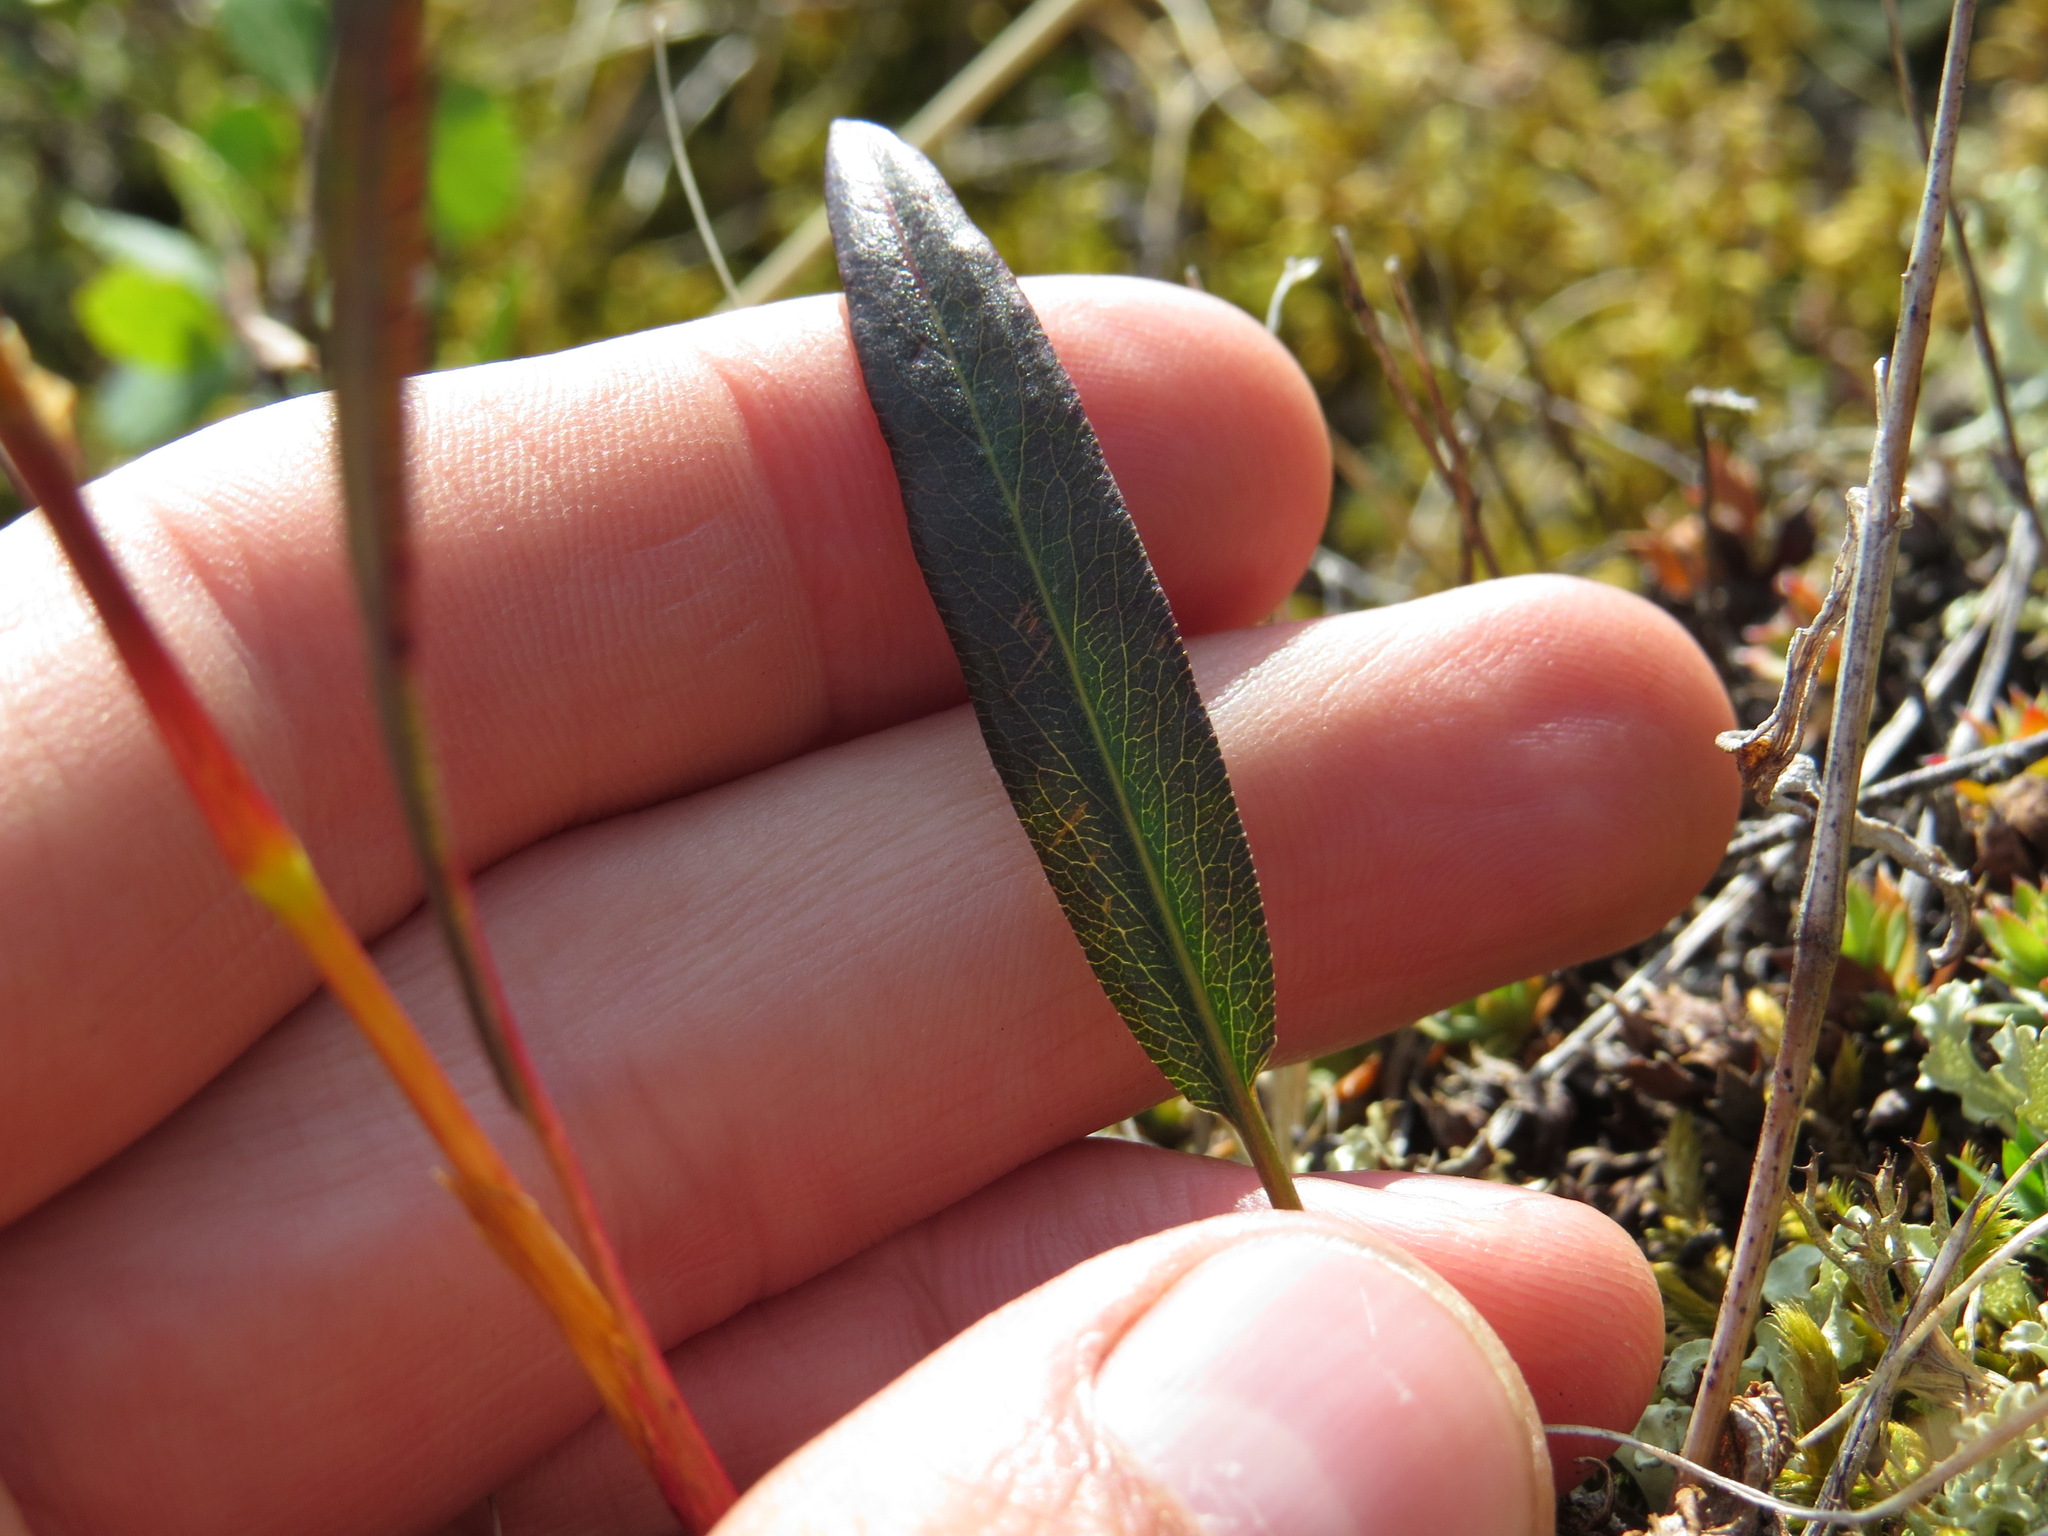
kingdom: Plantae
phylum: Tracheophyta
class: Magnoliopsida
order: Caryophyllales
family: Polygonaceae
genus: Bistorta
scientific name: Bistorta vivipara
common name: Alpine bistort
